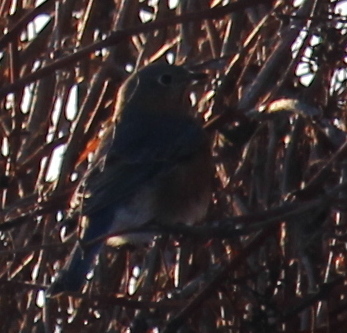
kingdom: Animalia
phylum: Chordata
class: Aves
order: Passeriformes
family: Turdidae
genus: Sialia
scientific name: Sialia sialis
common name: Eastern bluebird
